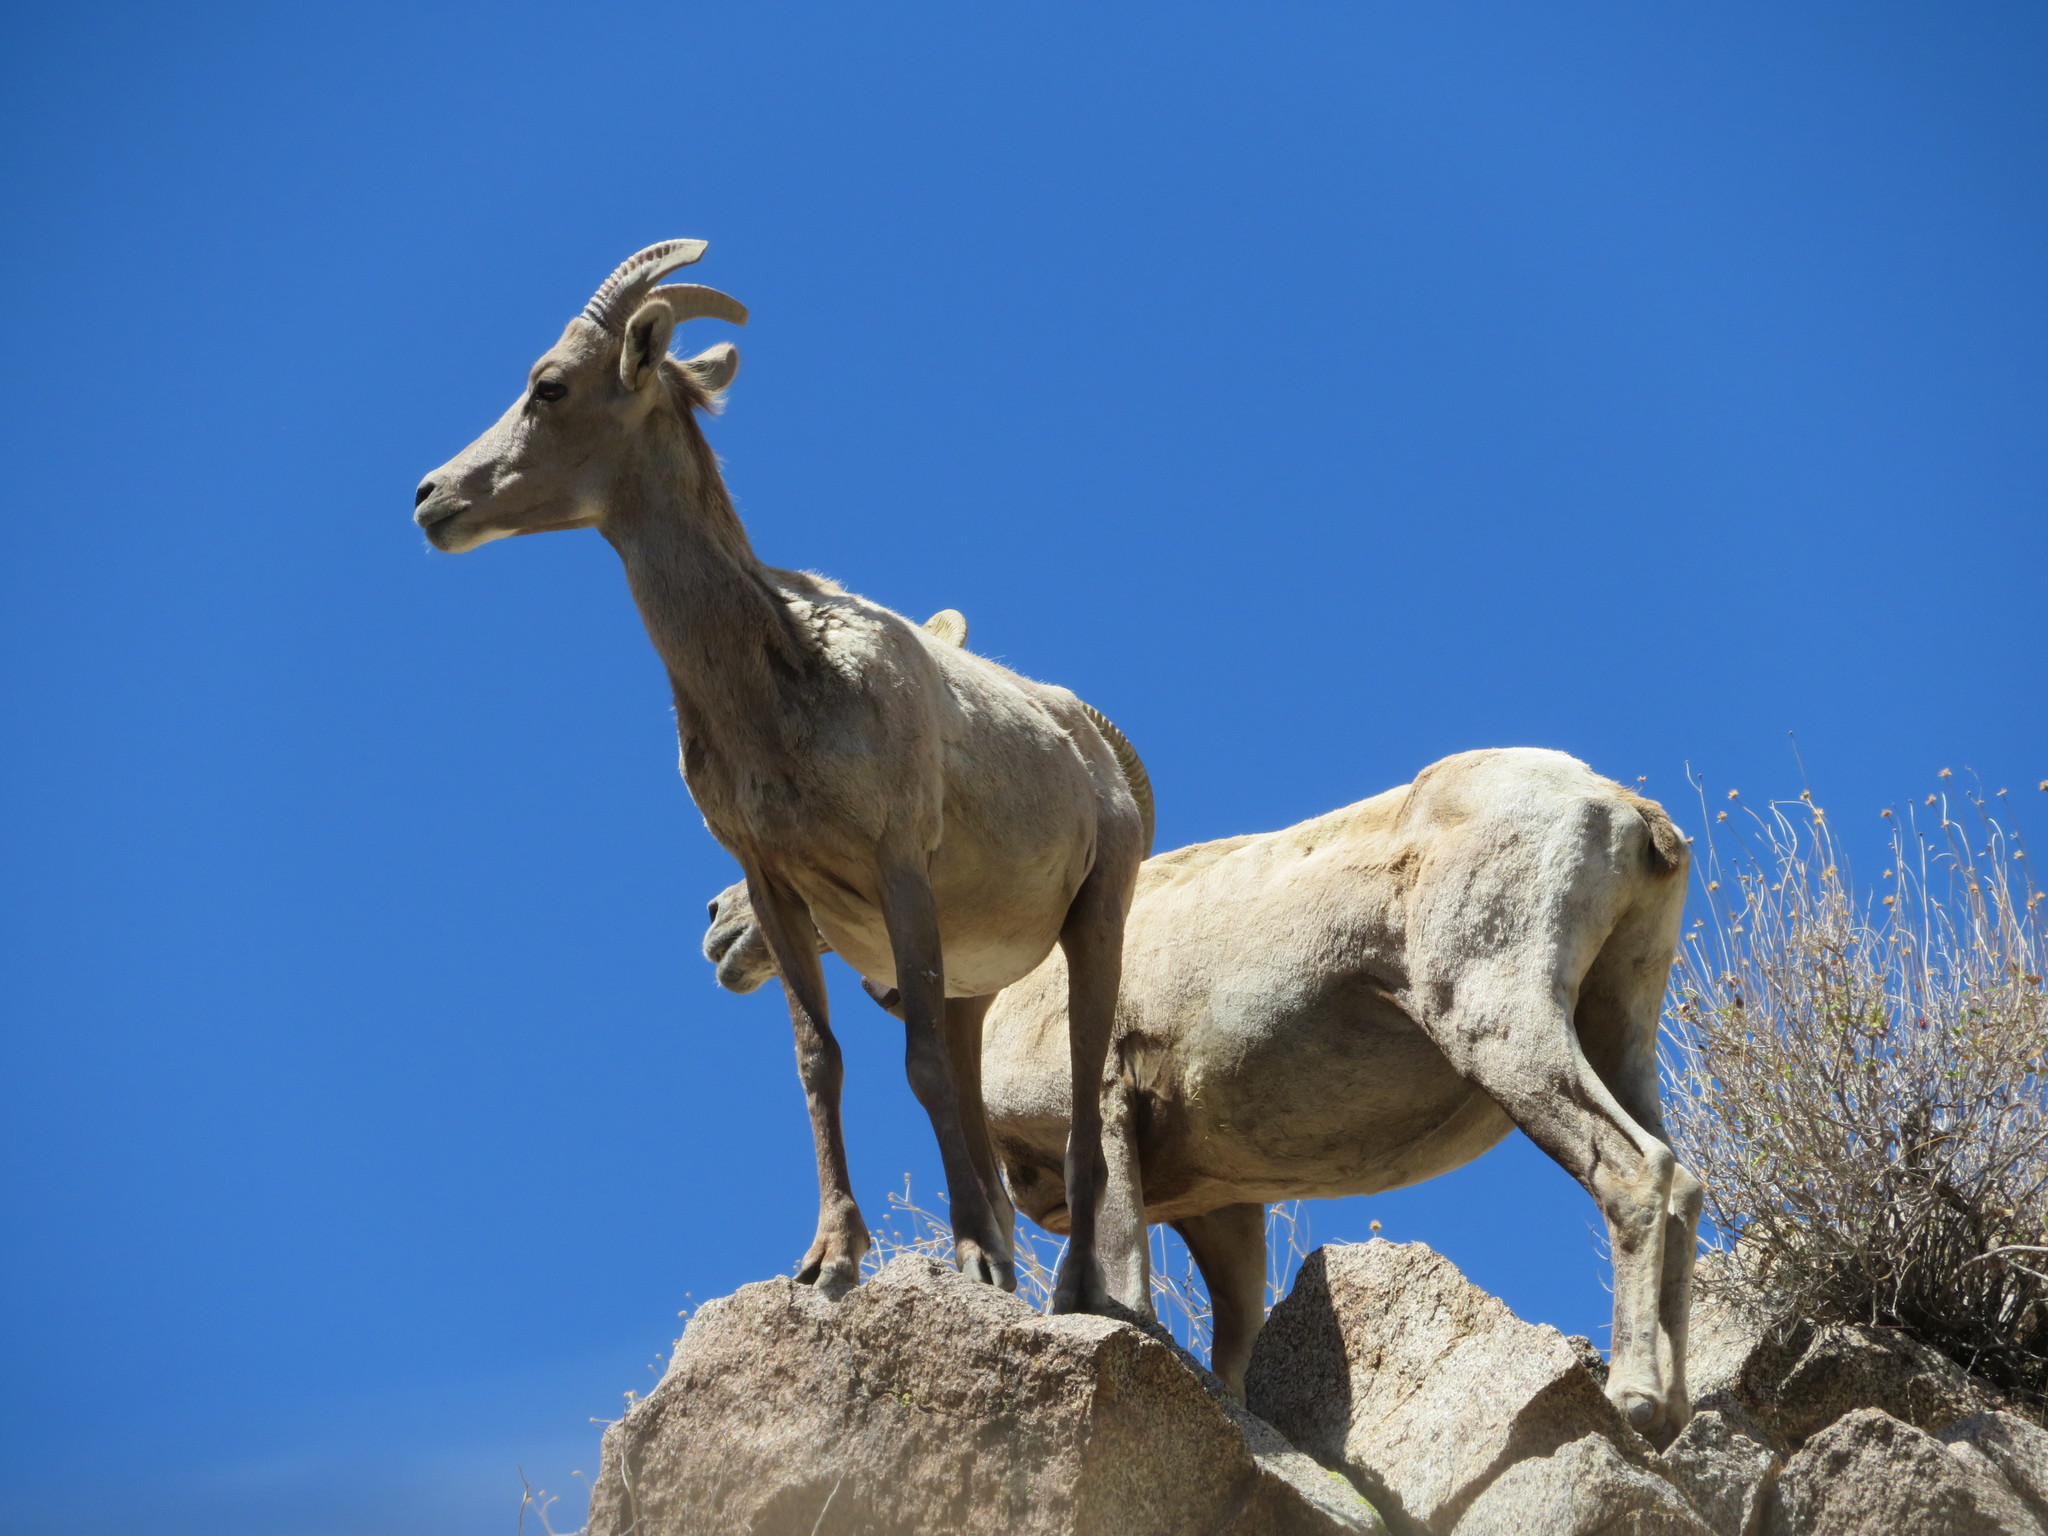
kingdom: Animalia
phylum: Chordata
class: Mammalia
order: Artiodactyla
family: Bovidae
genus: Ovis
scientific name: Ovis canadensis
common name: Bighorn sheep
